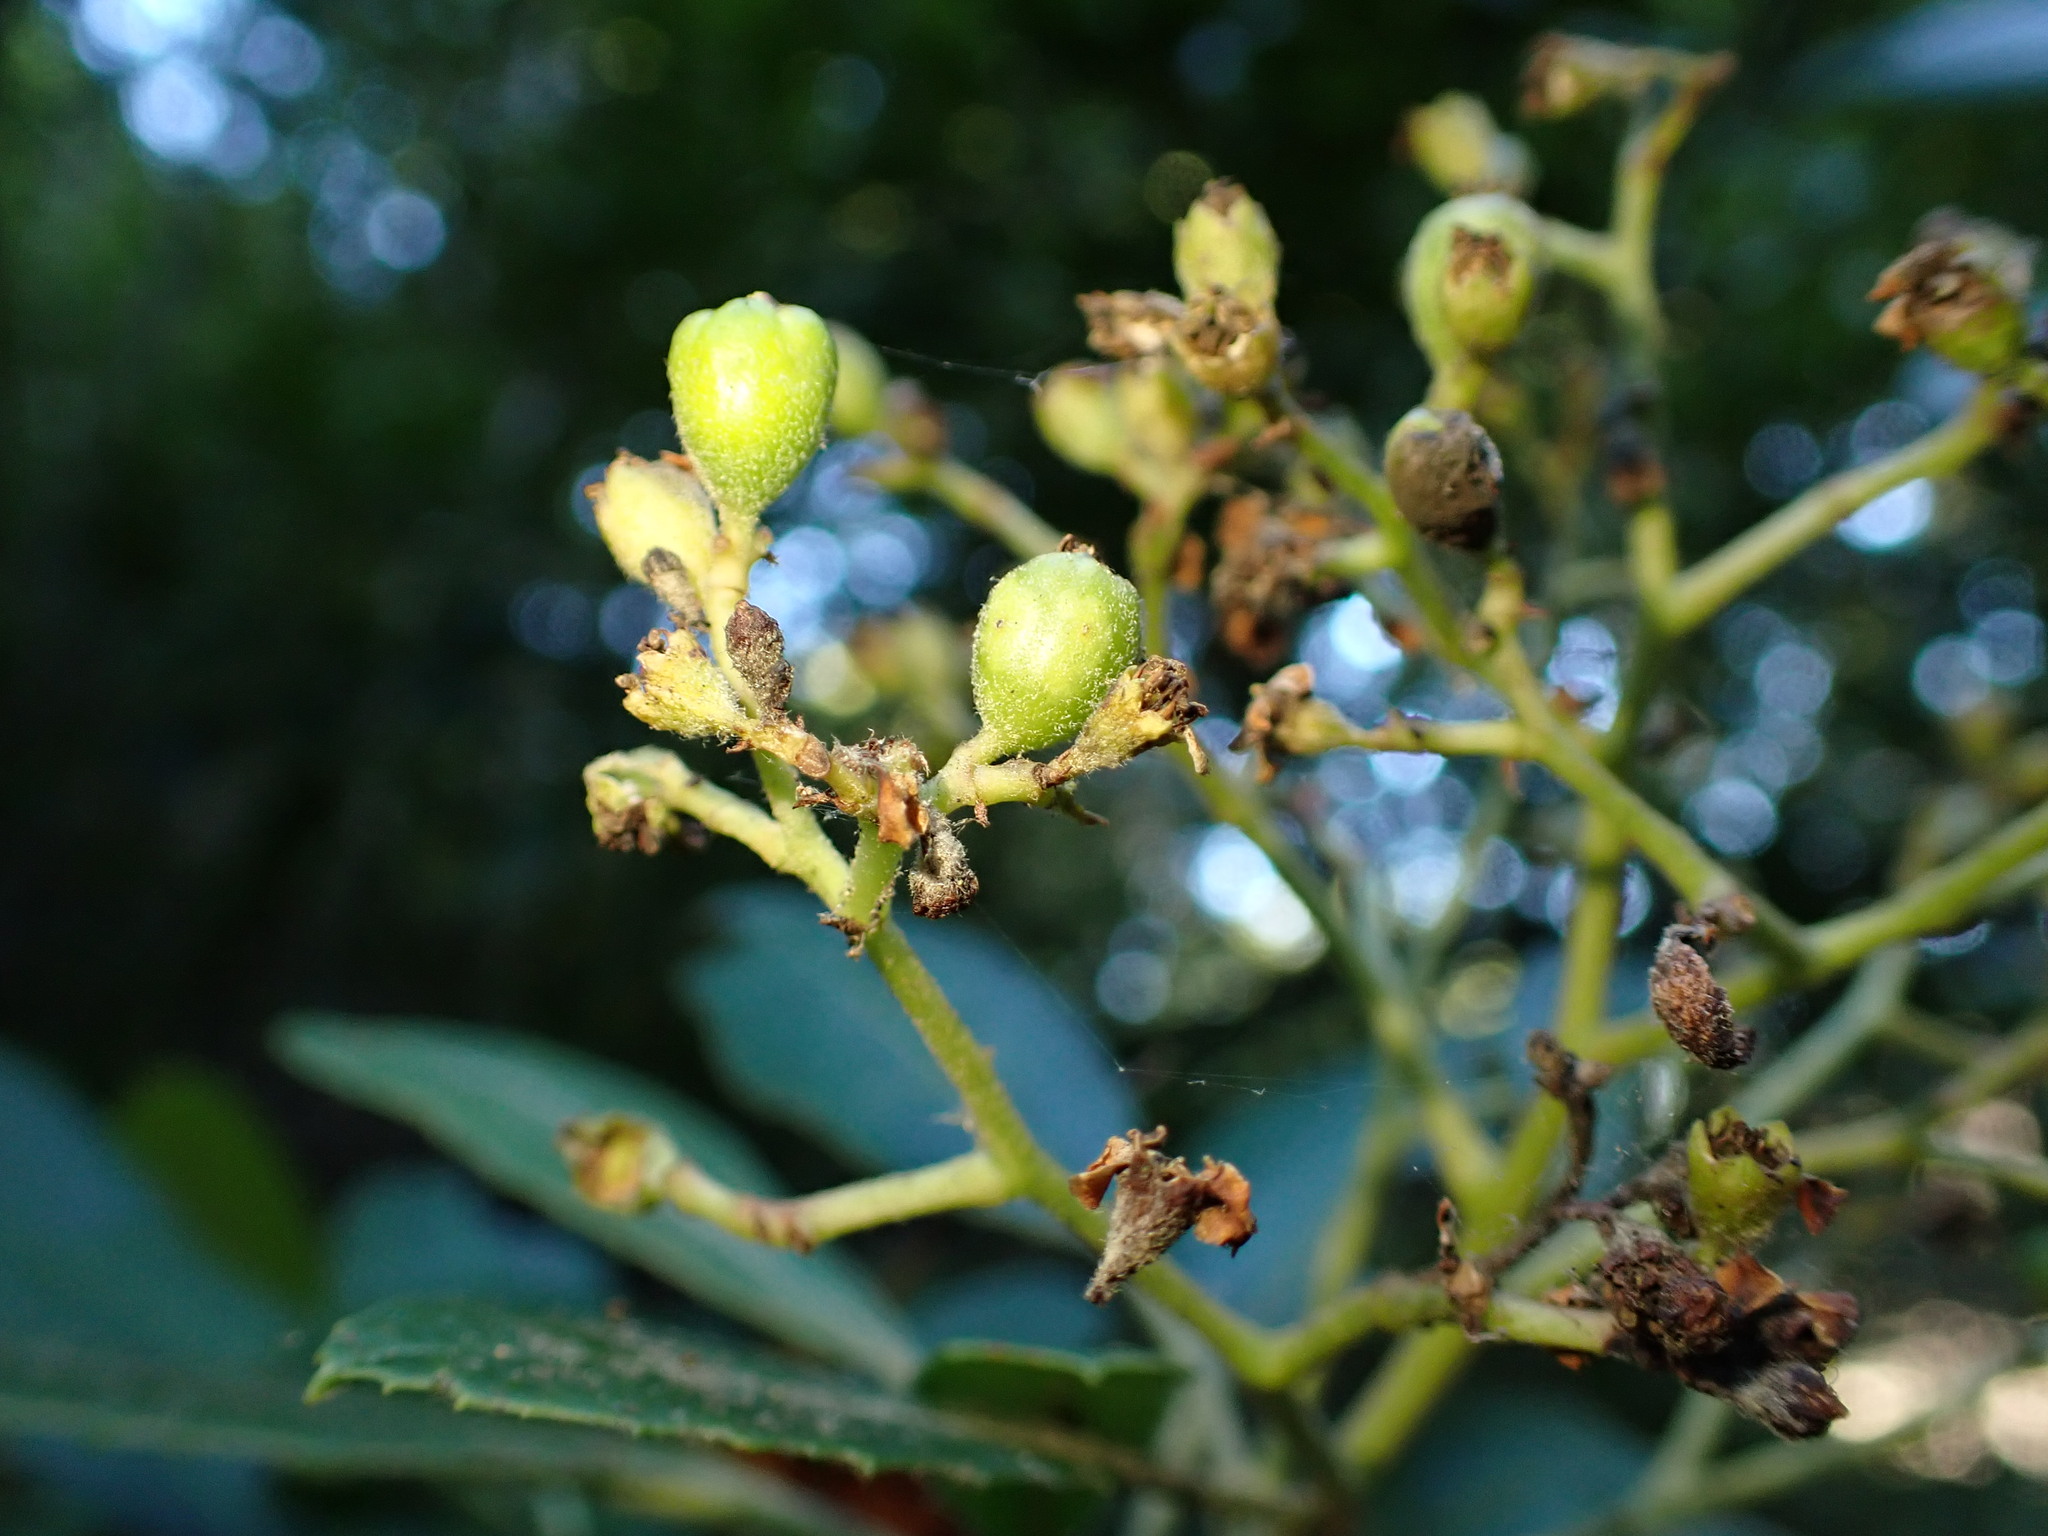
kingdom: Plantae
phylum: Tracheophyta
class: Magnoliopsida
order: Rosales
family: Rosaceae
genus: Heteromeles
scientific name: Heteromeles arbutifolia
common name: California-holly
